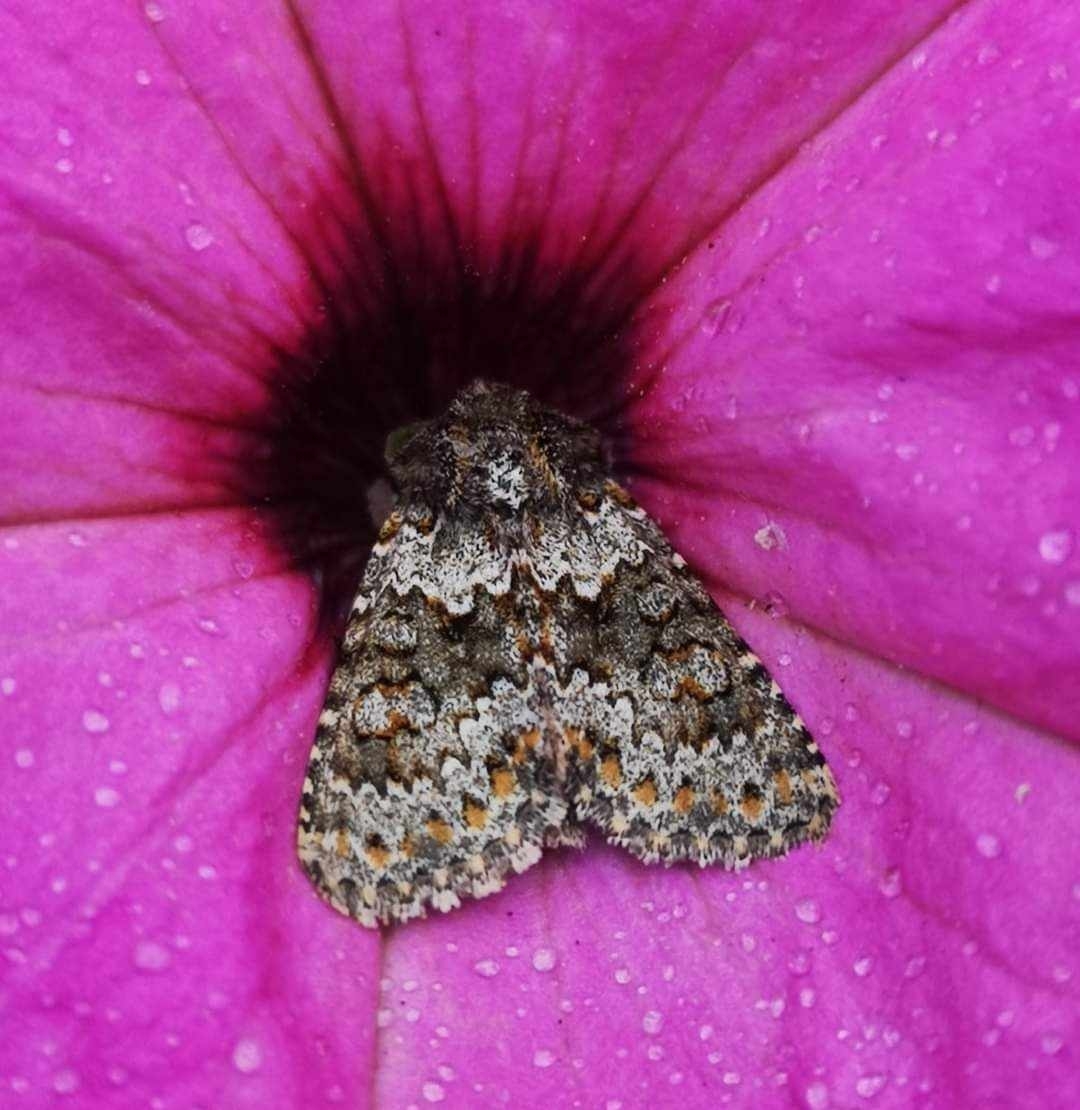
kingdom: Animalia
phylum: Arthropoda
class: Insecta
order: Lepidoptera
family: Noctuidae
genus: Hecatera
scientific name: Hecatera dysodea
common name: Small ranunculus
